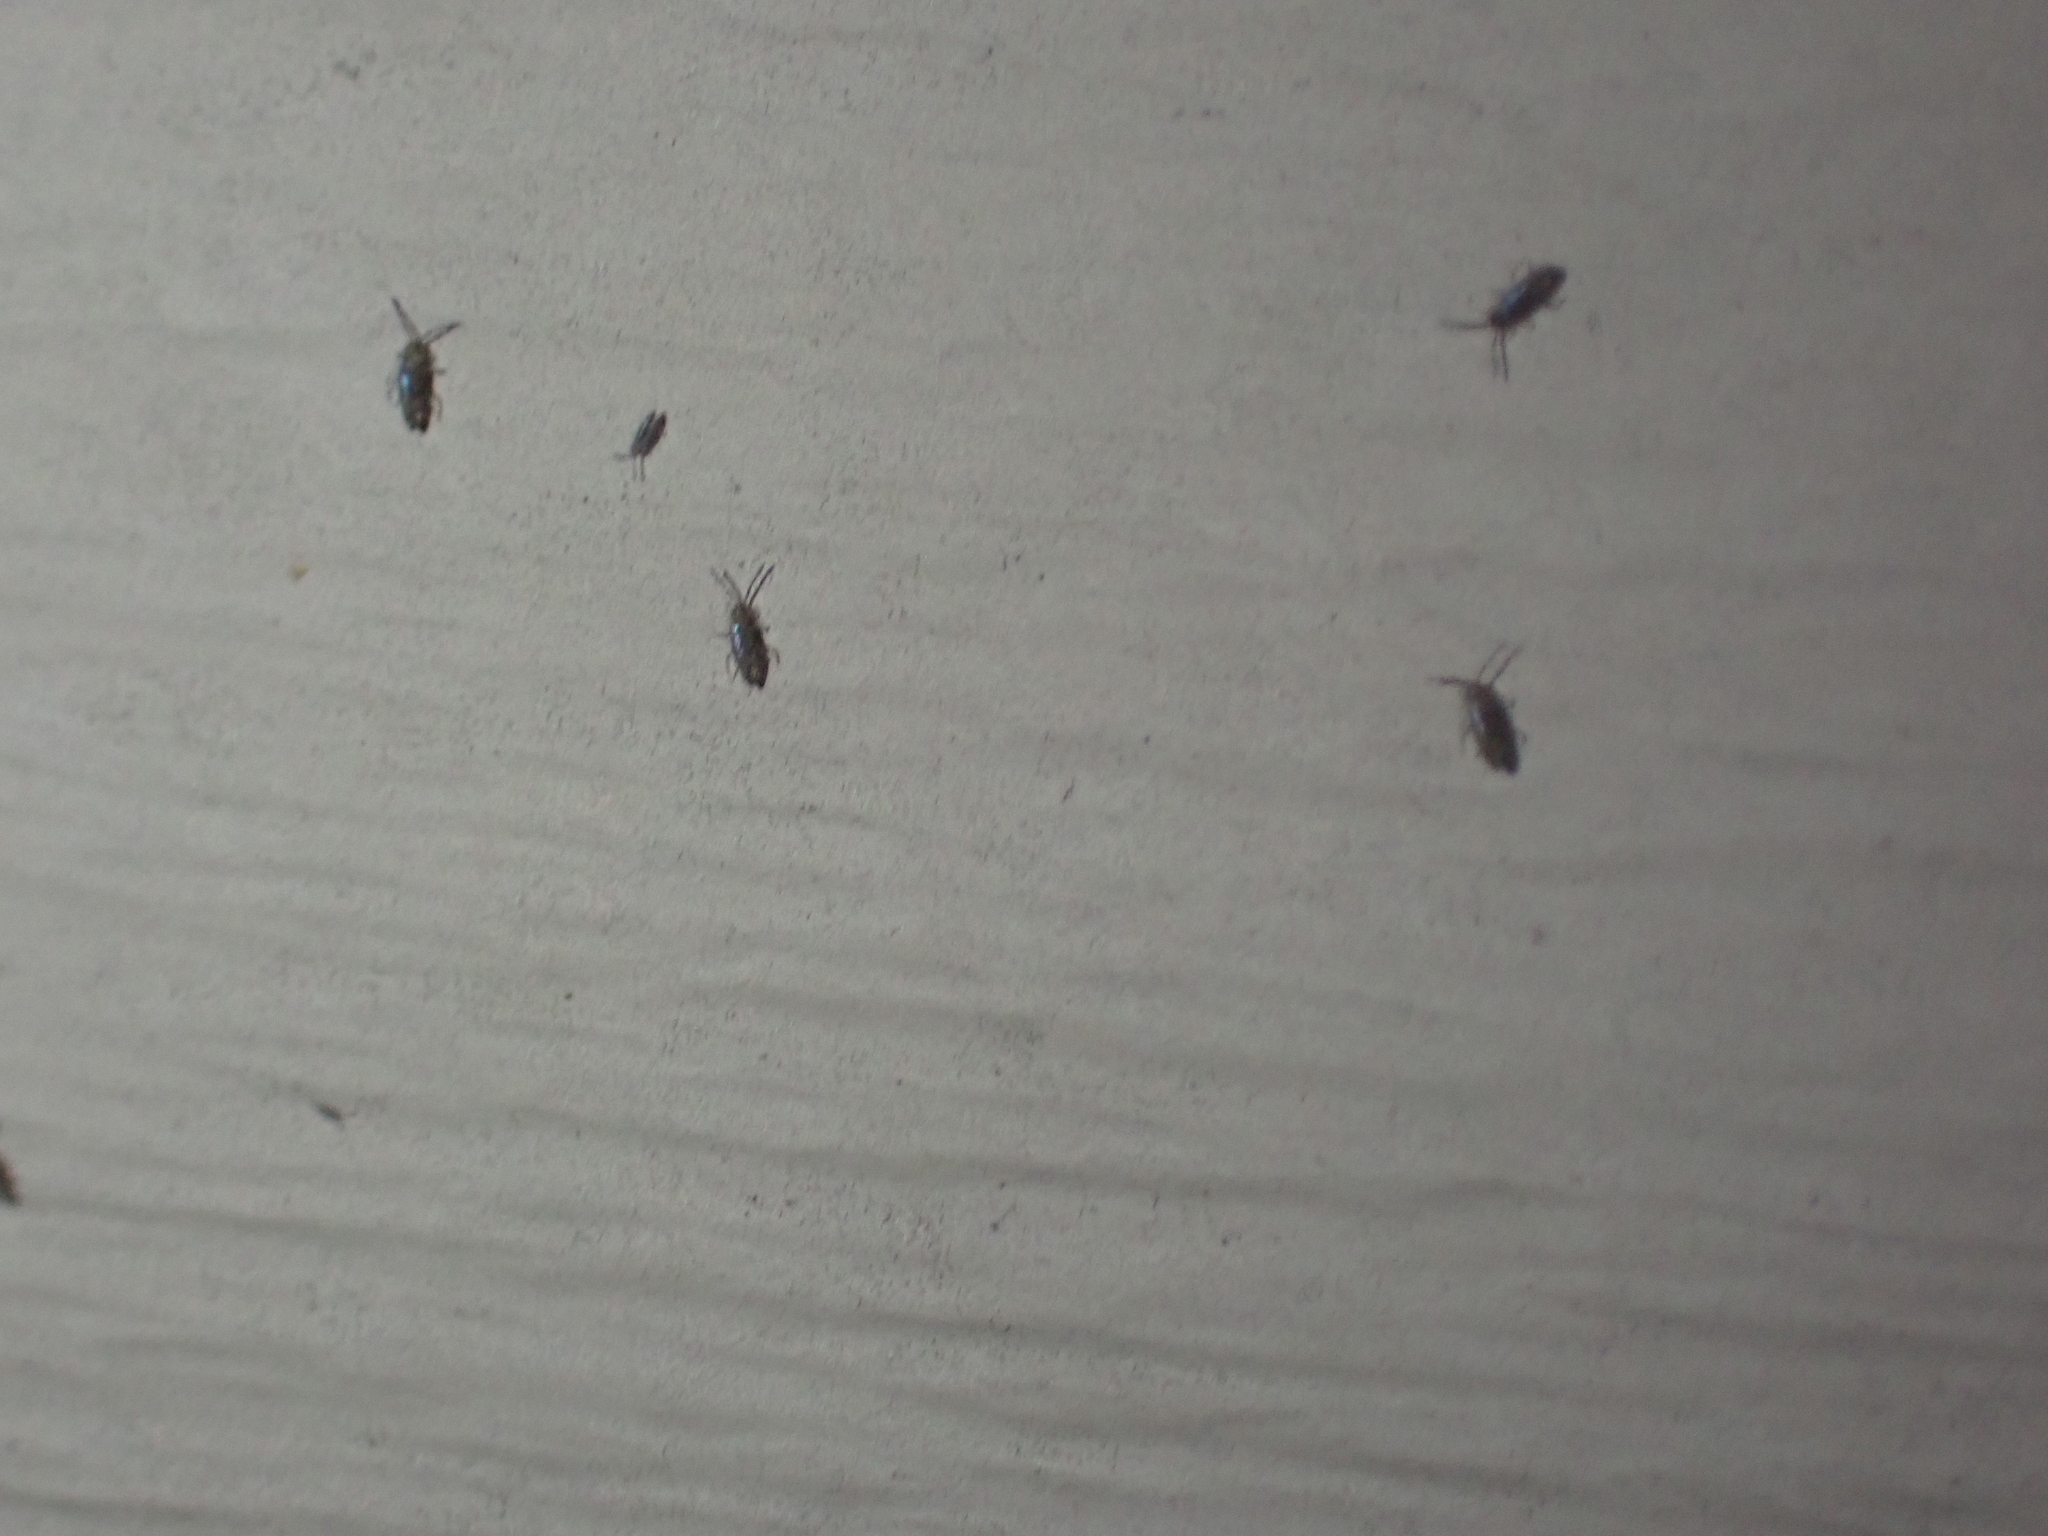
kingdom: Animalia
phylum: Arthropoda
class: Collembola
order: Entomobryomorpha
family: Entomobryidae
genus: Willowsia
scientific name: Willowsia nigromaculata
